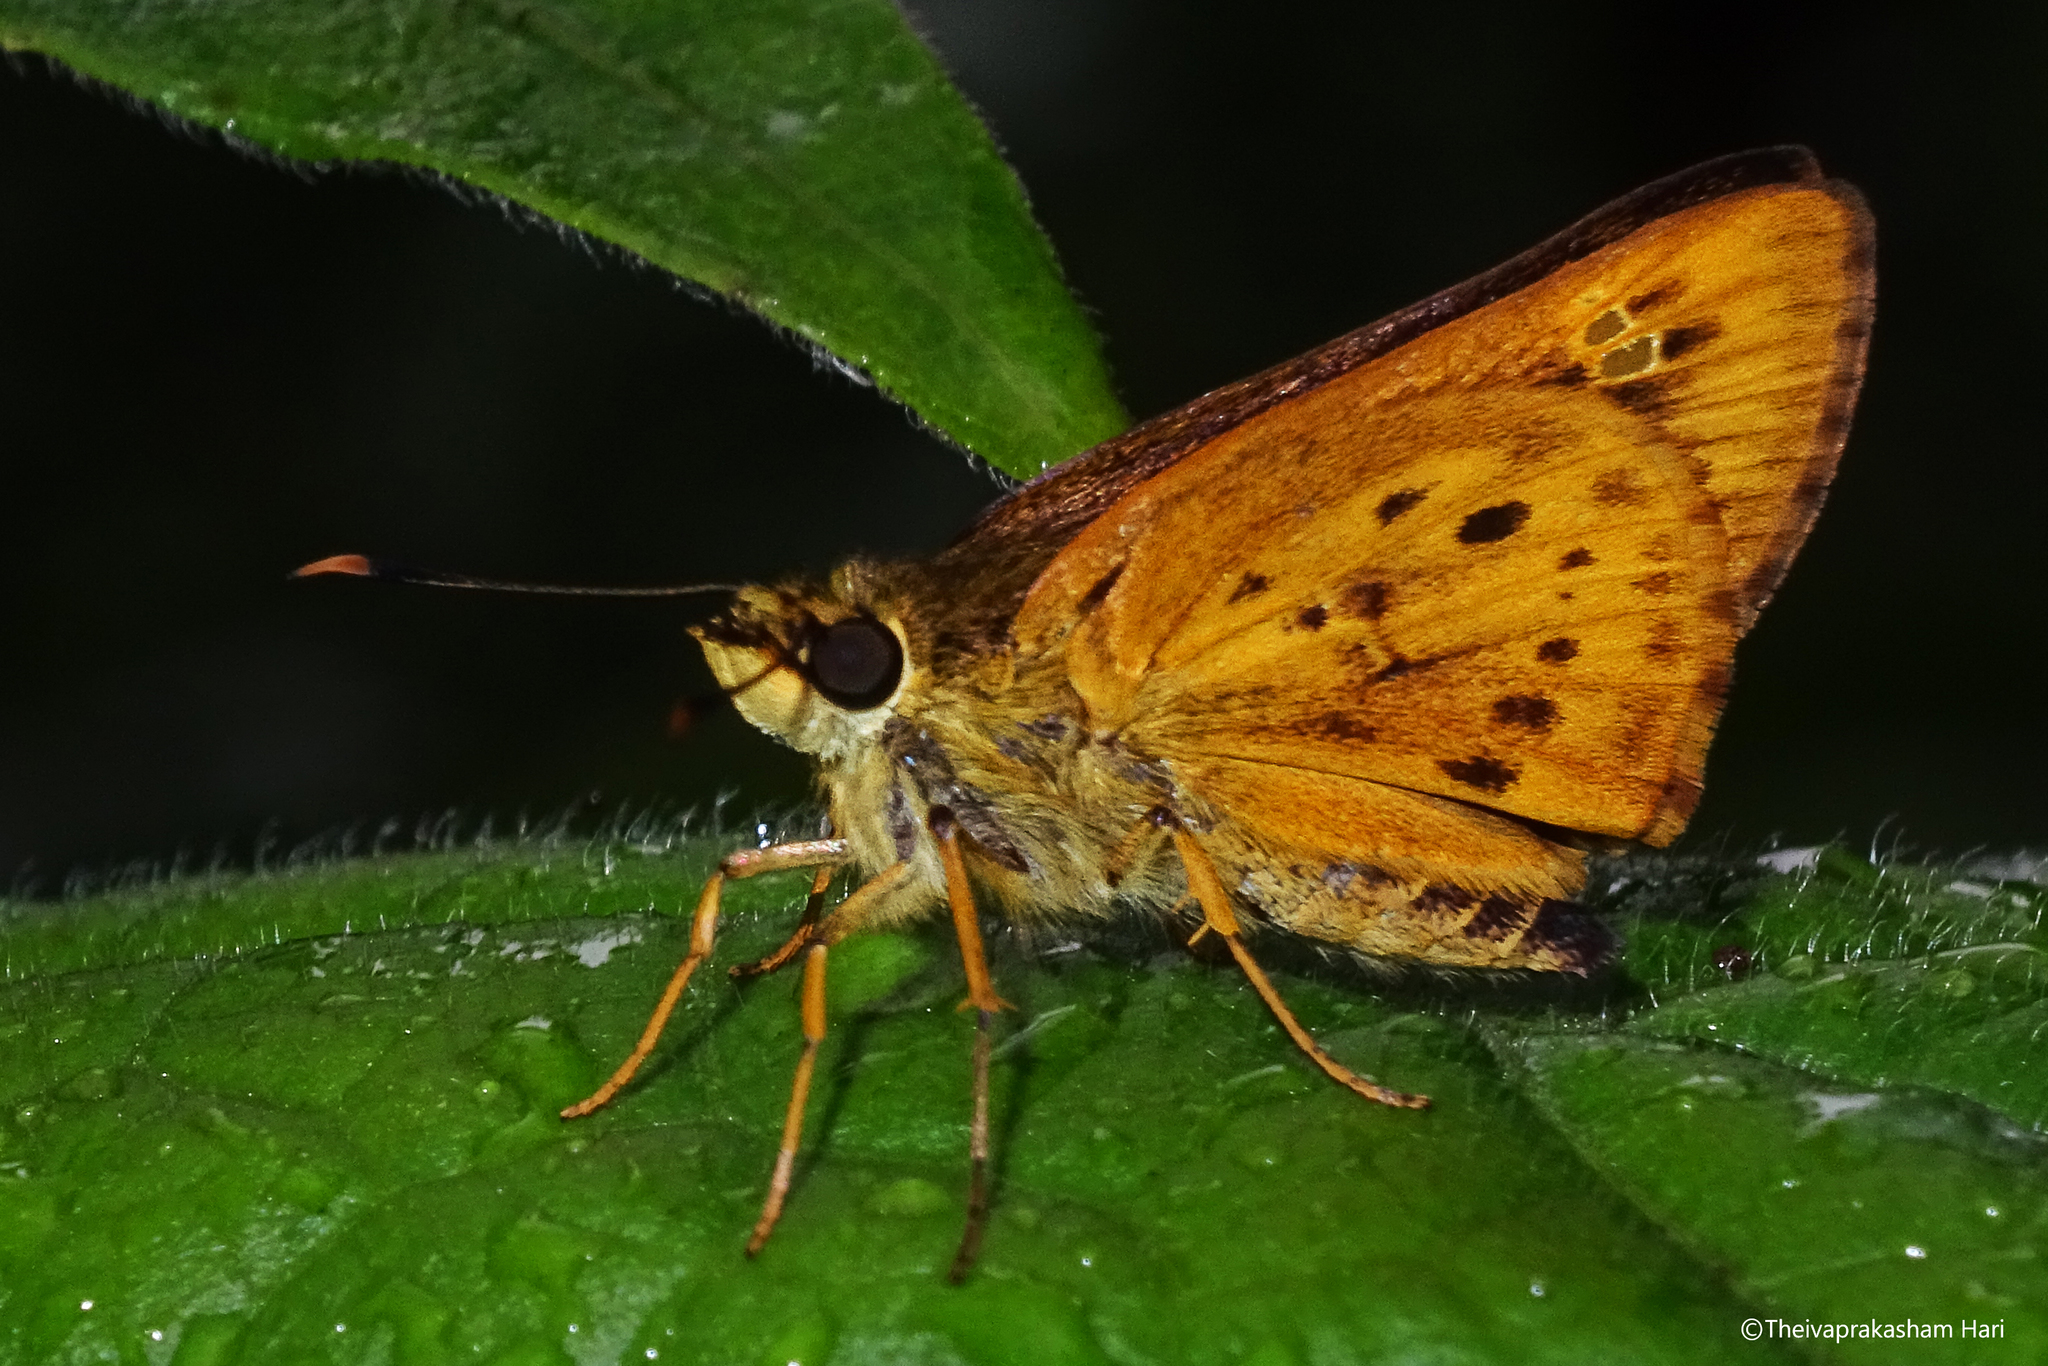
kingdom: Animalia
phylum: Arthropoda
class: Insecta
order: Lepidoptera
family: Hesperiidae
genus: Thoressa
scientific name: Thoressa honorei
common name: Madras ace
